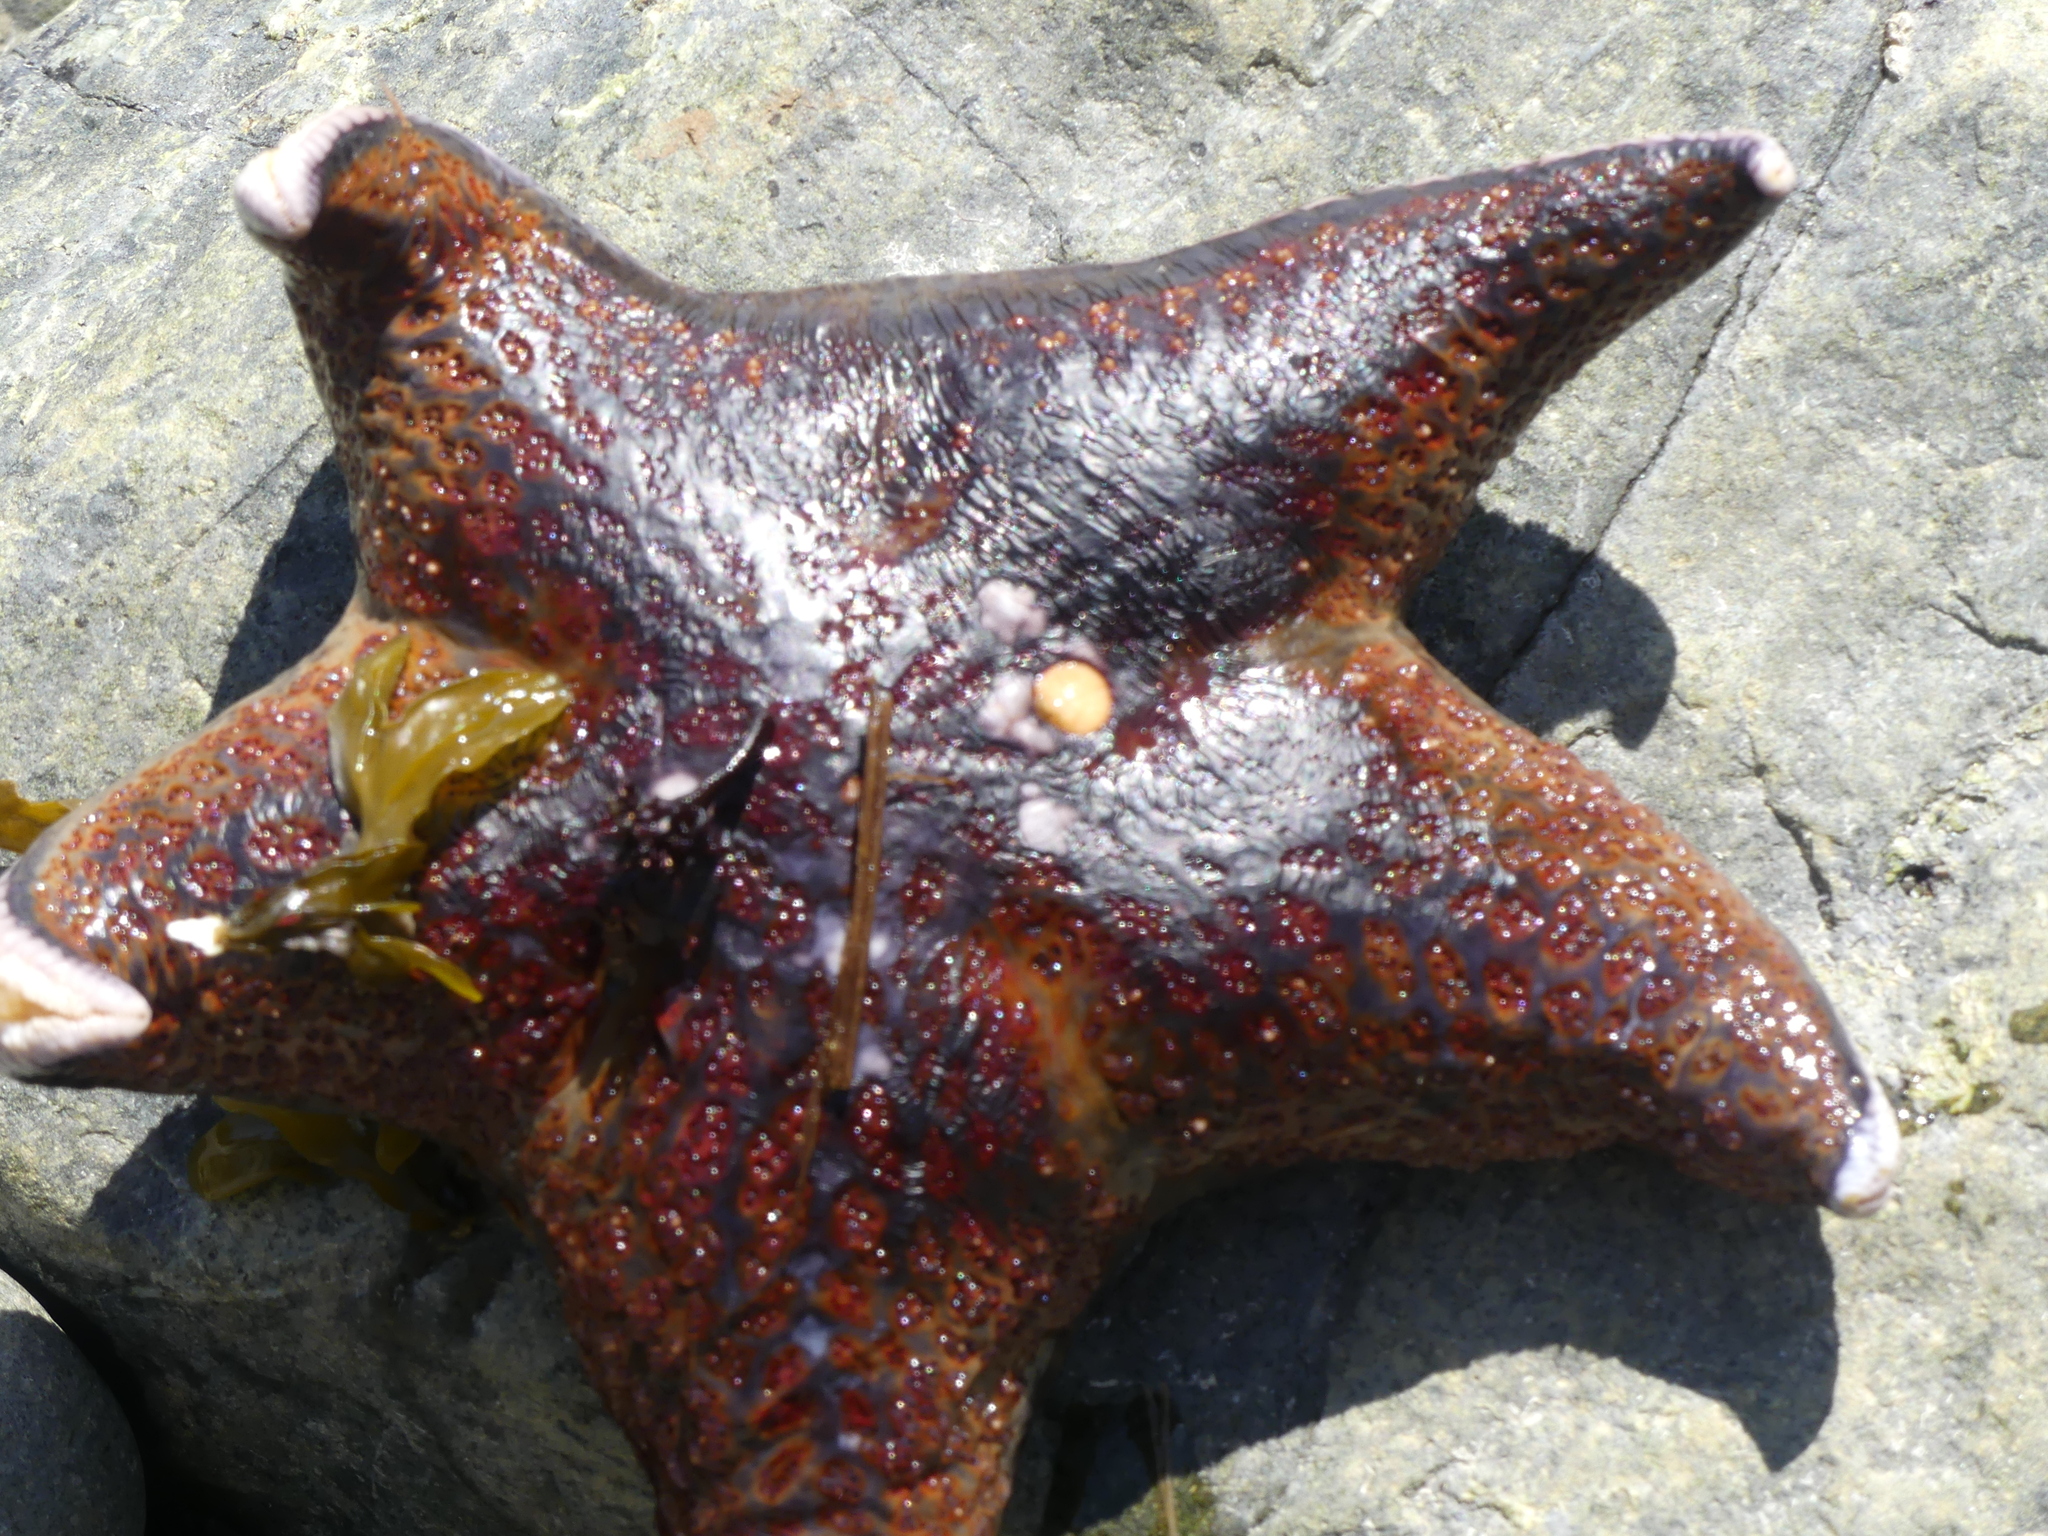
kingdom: Animalia
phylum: Echinodermata
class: Asteroidea
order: Valvatida
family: Asteropseidae
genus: Dermasterias
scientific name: Dermasterias imbricata
